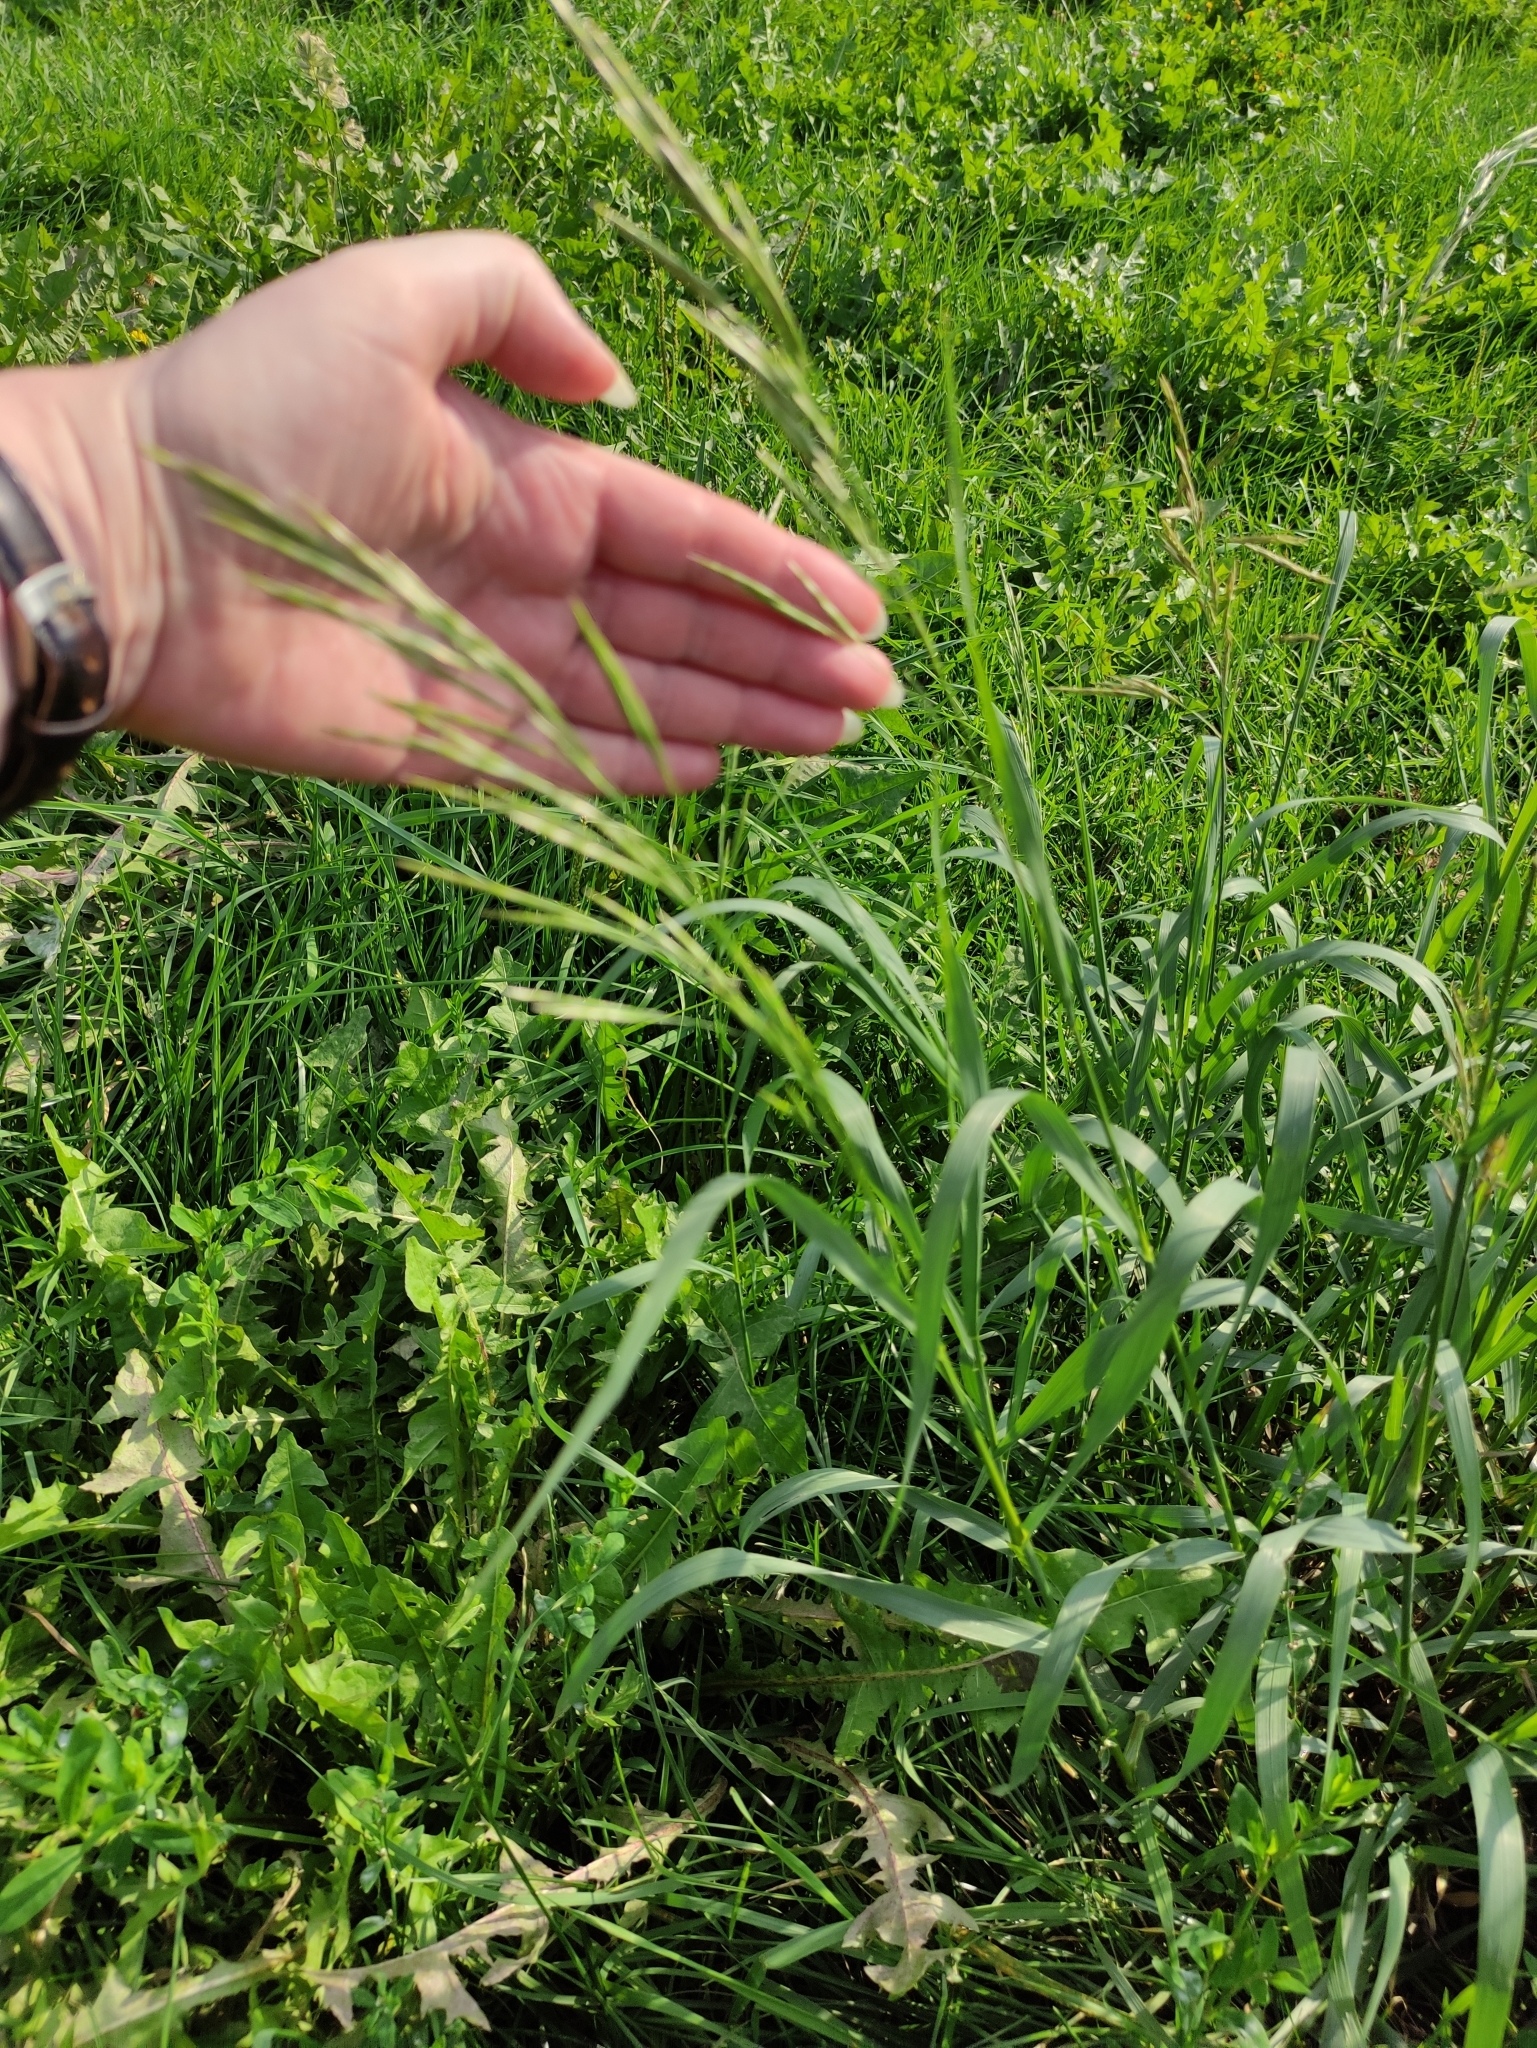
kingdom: Plantae
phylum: Tracheophyta
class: Liliopsida
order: Poales
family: Poaceae
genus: Bromus
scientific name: Bromus inermis
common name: Smooth brome
